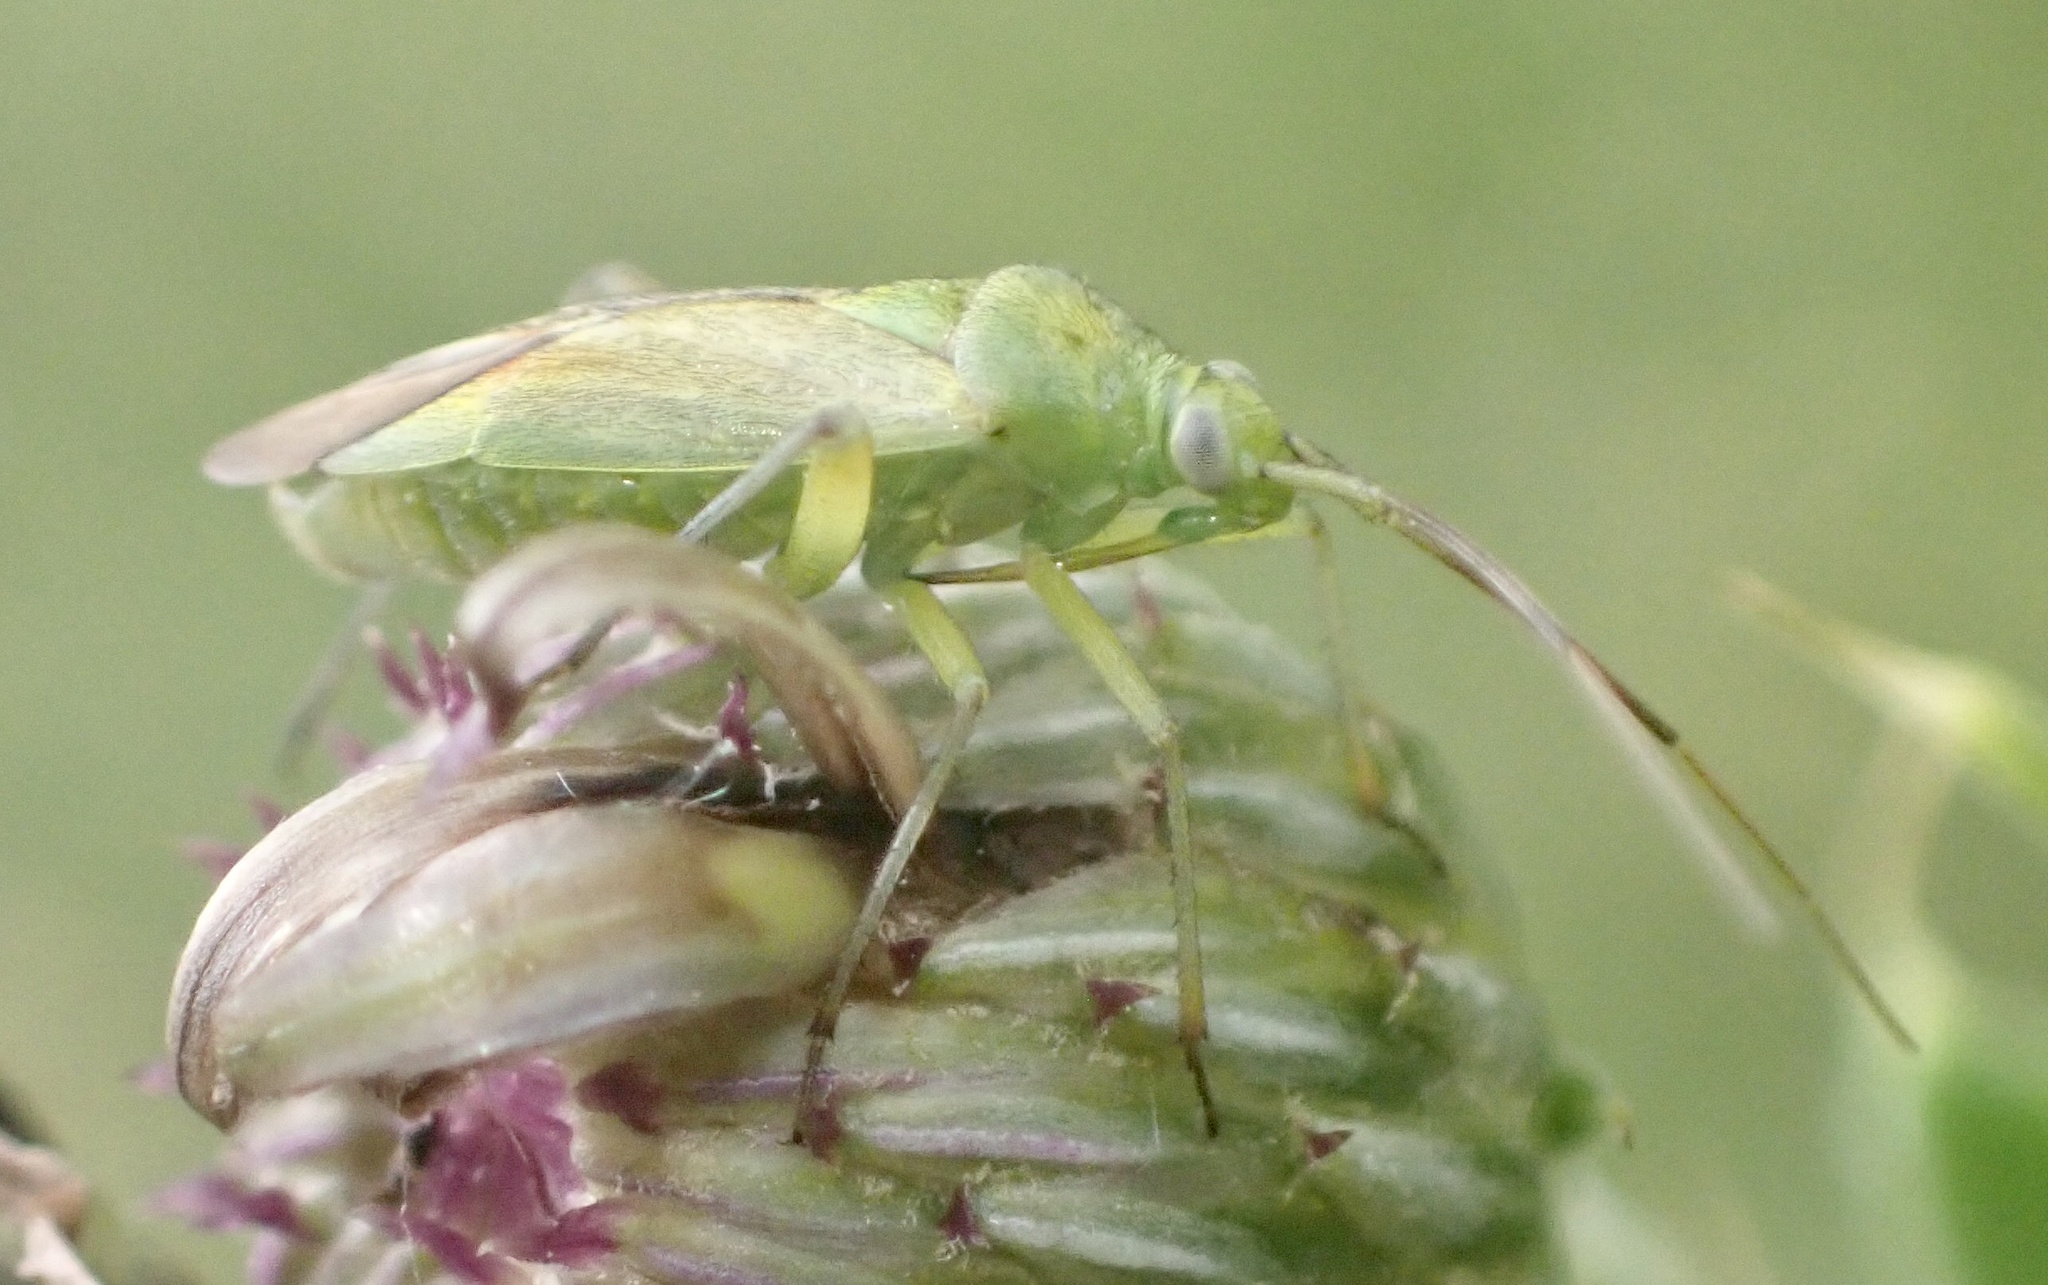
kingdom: Animalia
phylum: Arthropoda
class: Insecta
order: Hemiptera
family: Miridae
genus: Closterotomus
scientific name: Closterotomus norvegicus
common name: Plant bug
